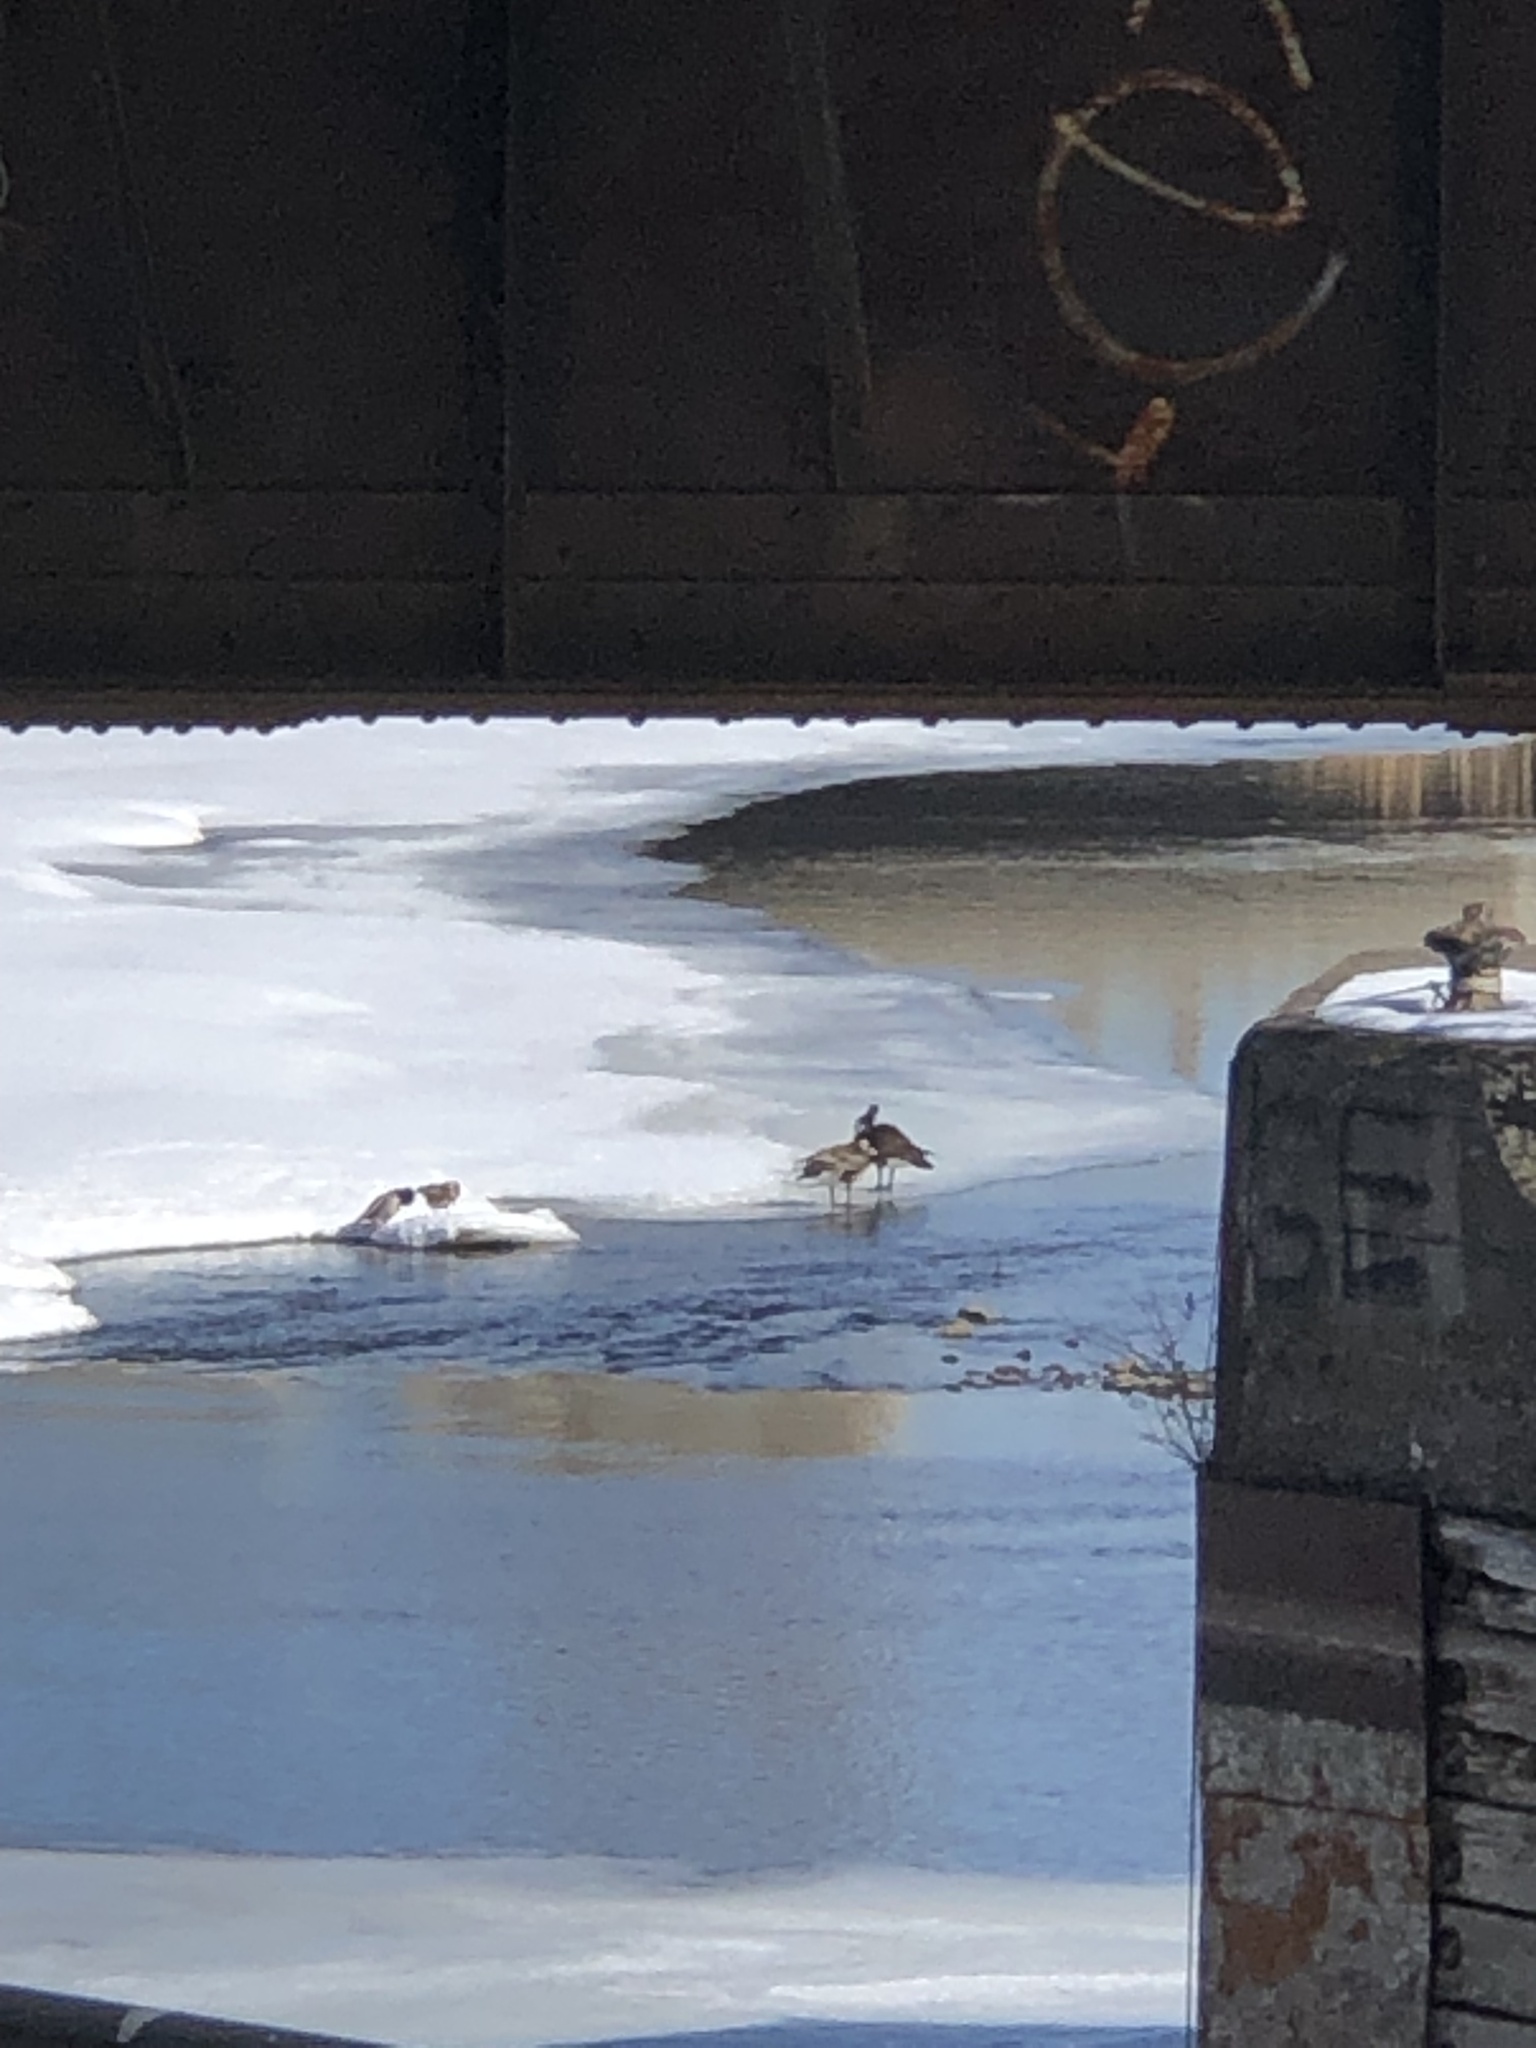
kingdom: Animalia
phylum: Chordata
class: Aves
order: Anseriformes
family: Anatidae
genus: Branta
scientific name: Branta canadensis
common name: Canada goose
